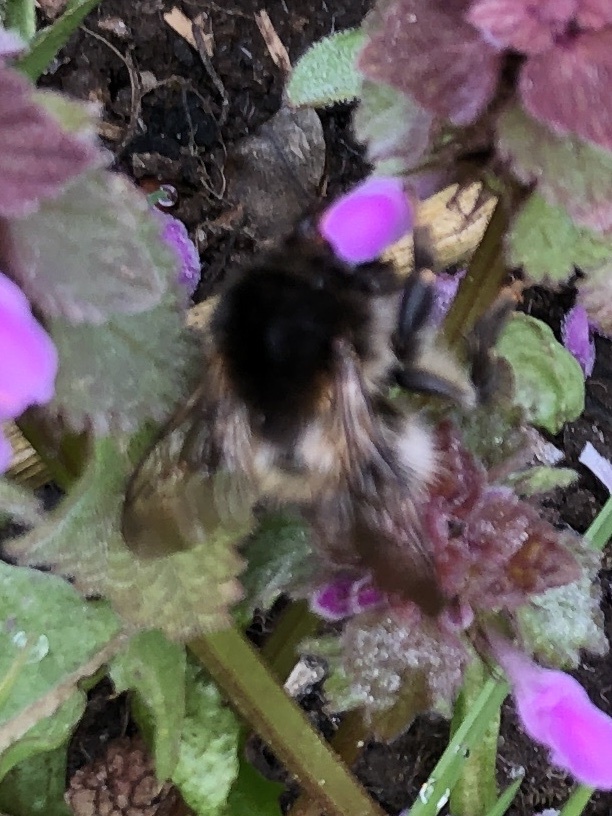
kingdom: Animalia
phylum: Arthropoda
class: Insecta
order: Hymenoptera
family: Apidae
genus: Bombus
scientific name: Bombus pascuorum
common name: Common carder bee
